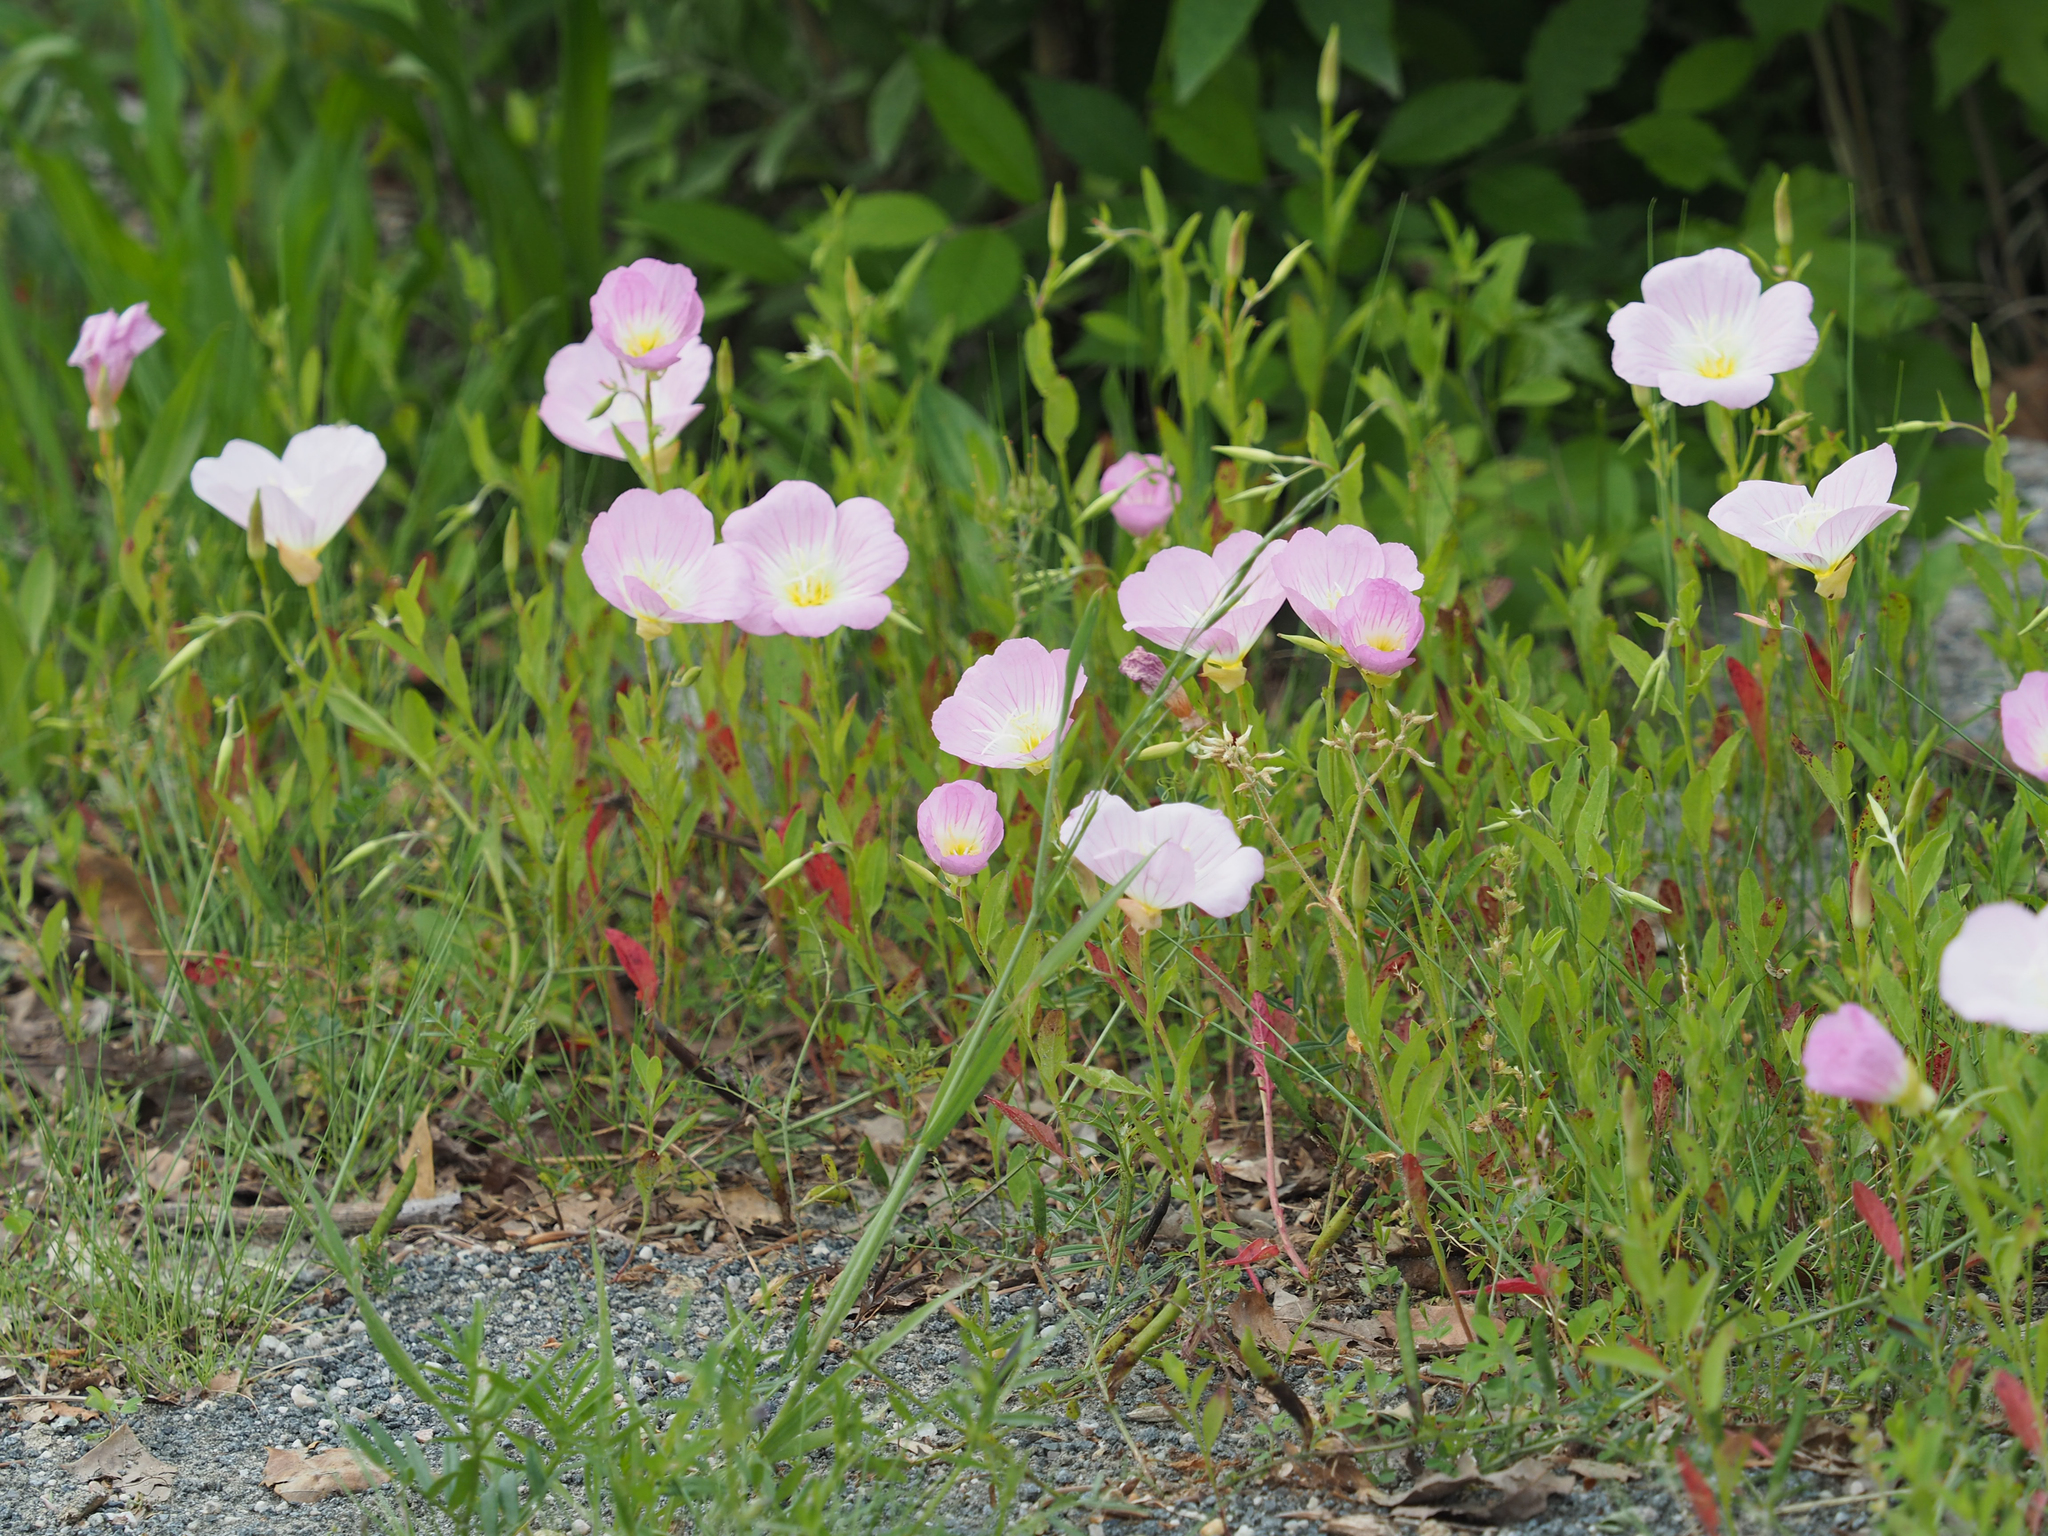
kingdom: Plantae
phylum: Tracheophyta
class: Magnoliopsida
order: Myrtales
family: Onagraceae
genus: Oenothera
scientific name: Oenothera speciosa
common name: White evening-primrose
